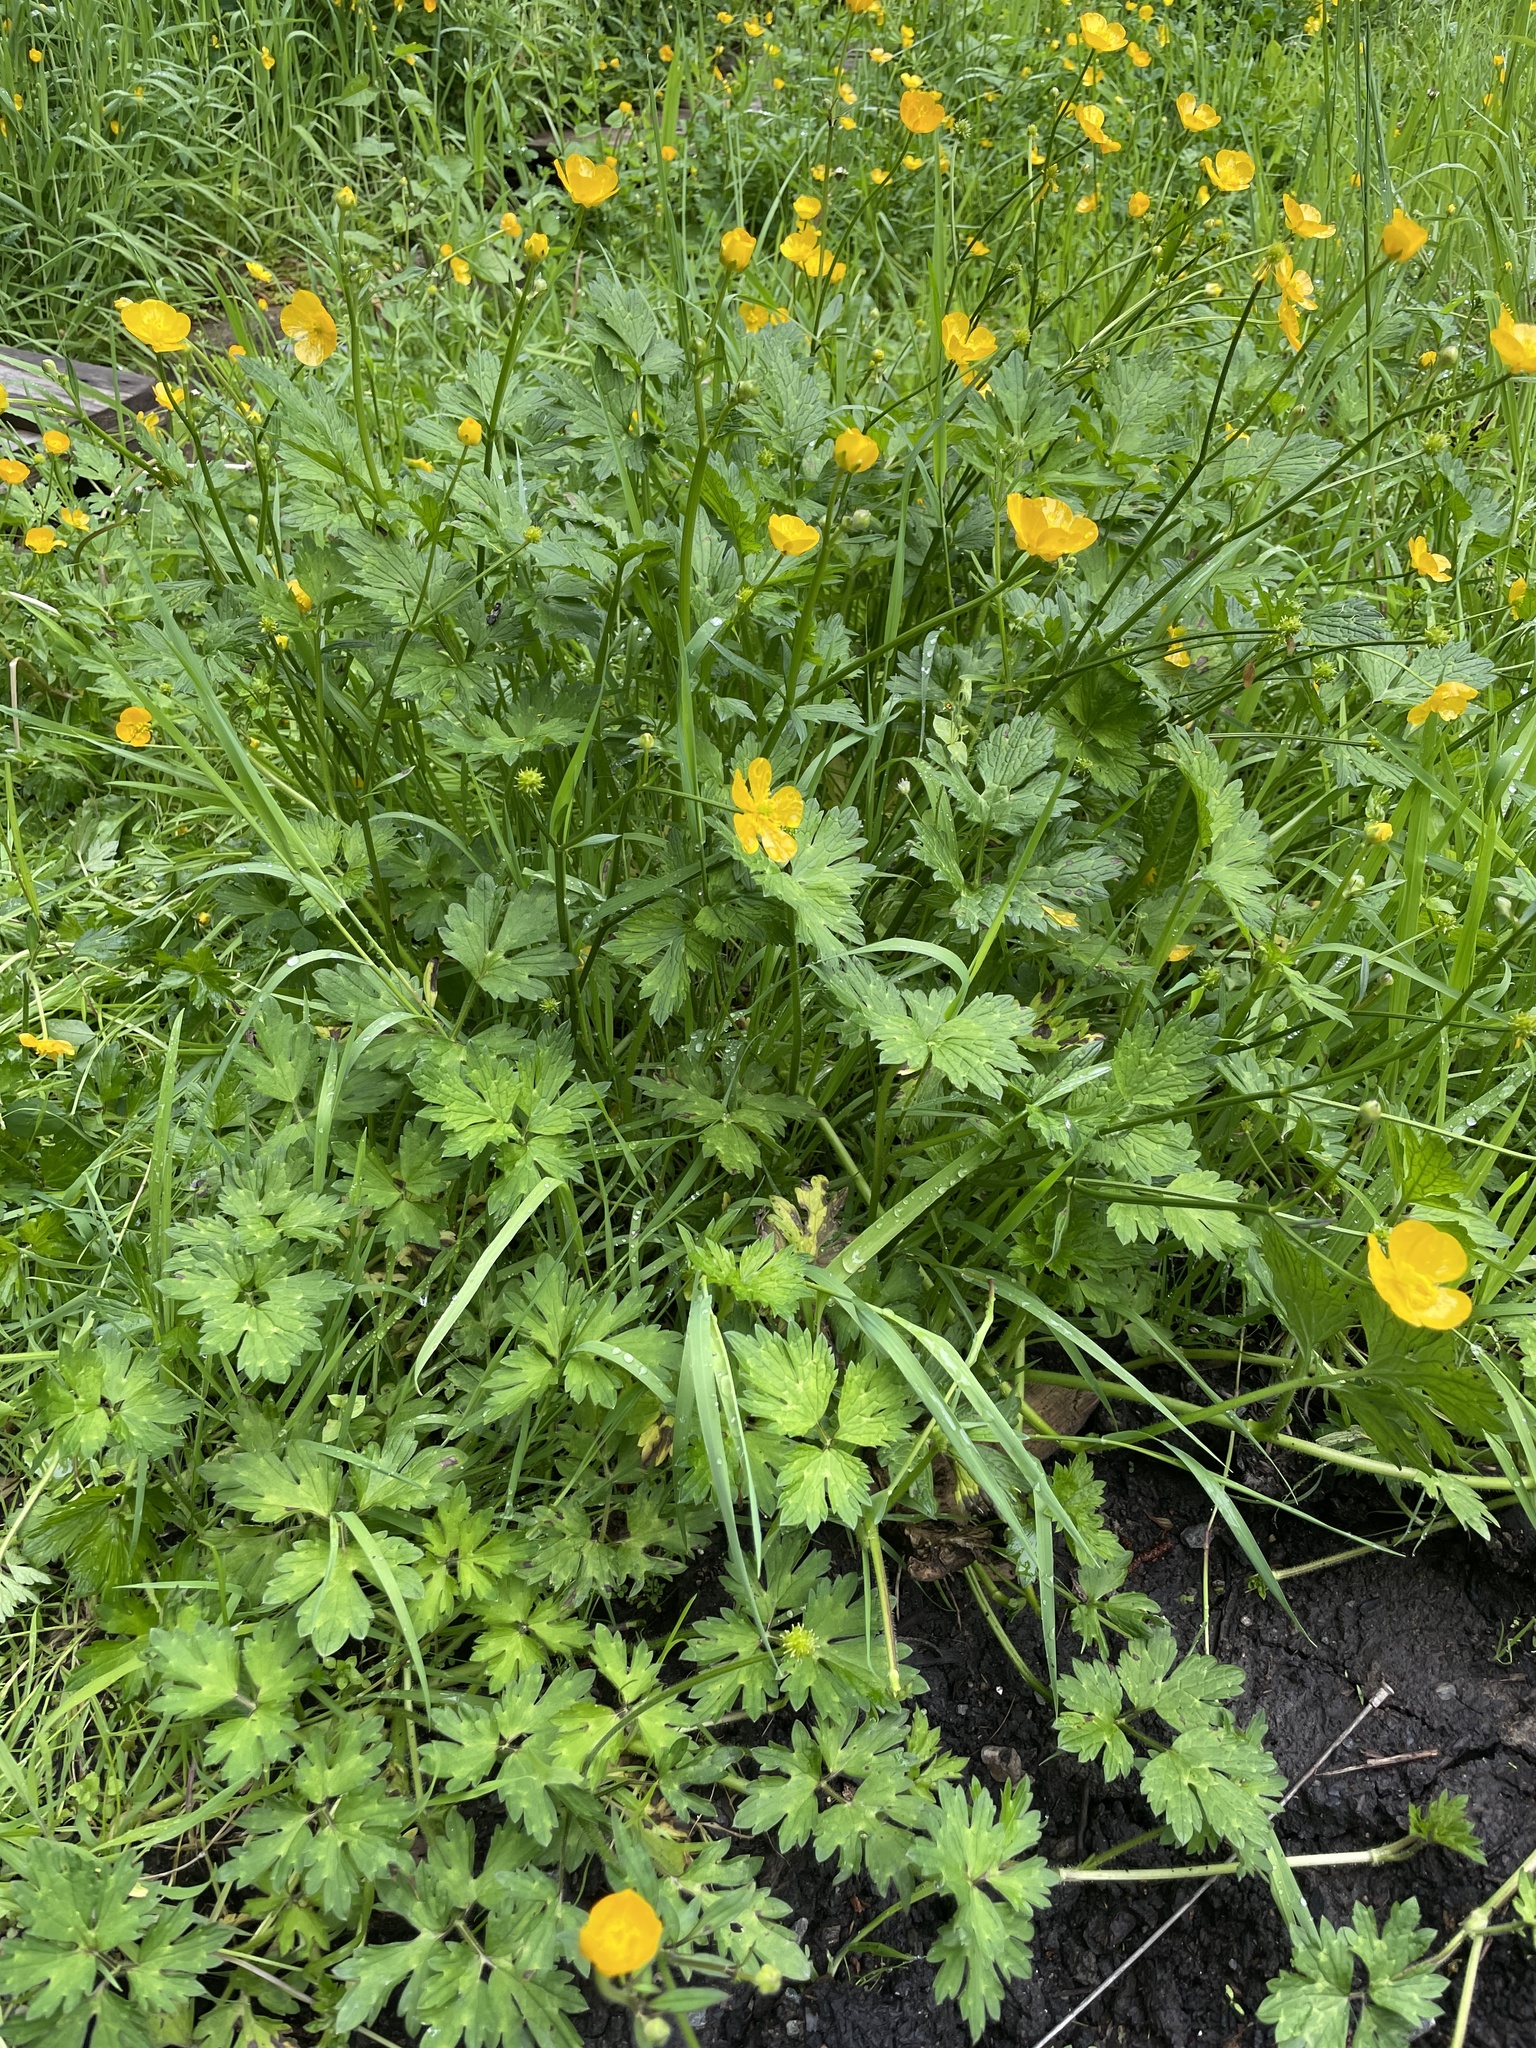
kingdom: Plantae
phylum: Tracheophyta
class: Magnoliopsida
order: Ranunculales
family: Ranunculaceae
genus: Ranunculus
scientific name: Ranunculus repens
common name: Creeping buttercup
